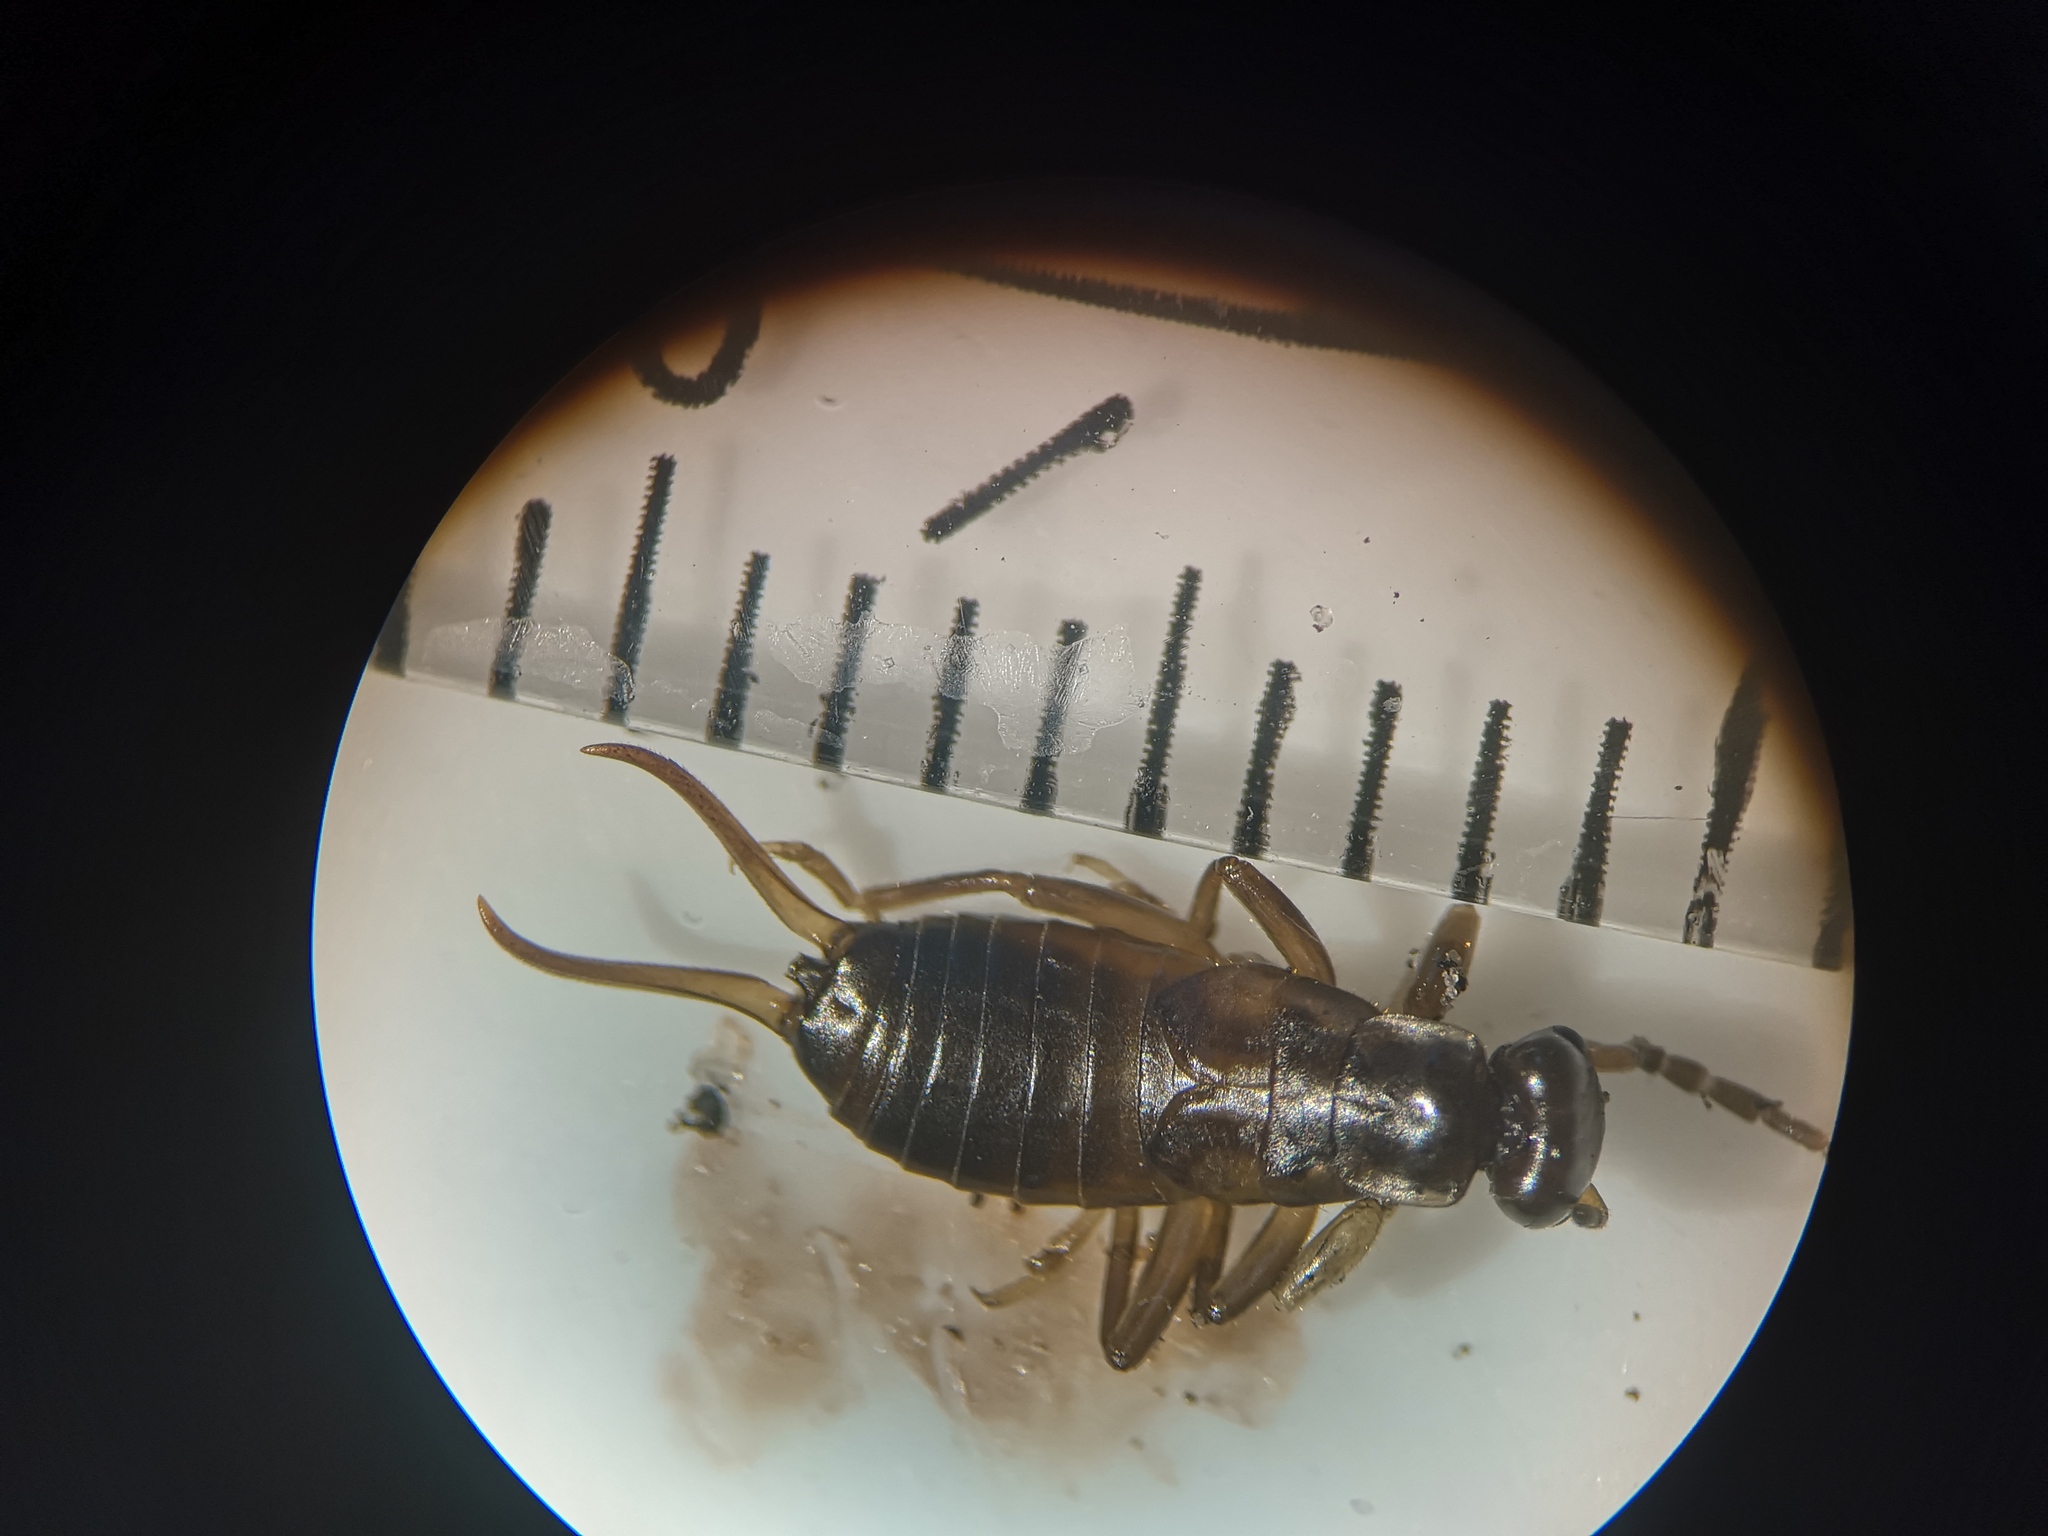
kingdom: Animalia
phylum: Arthropoda
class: Insecta
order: Dermaptera
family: Forficulidae
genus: Forficula
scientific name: Forficula
